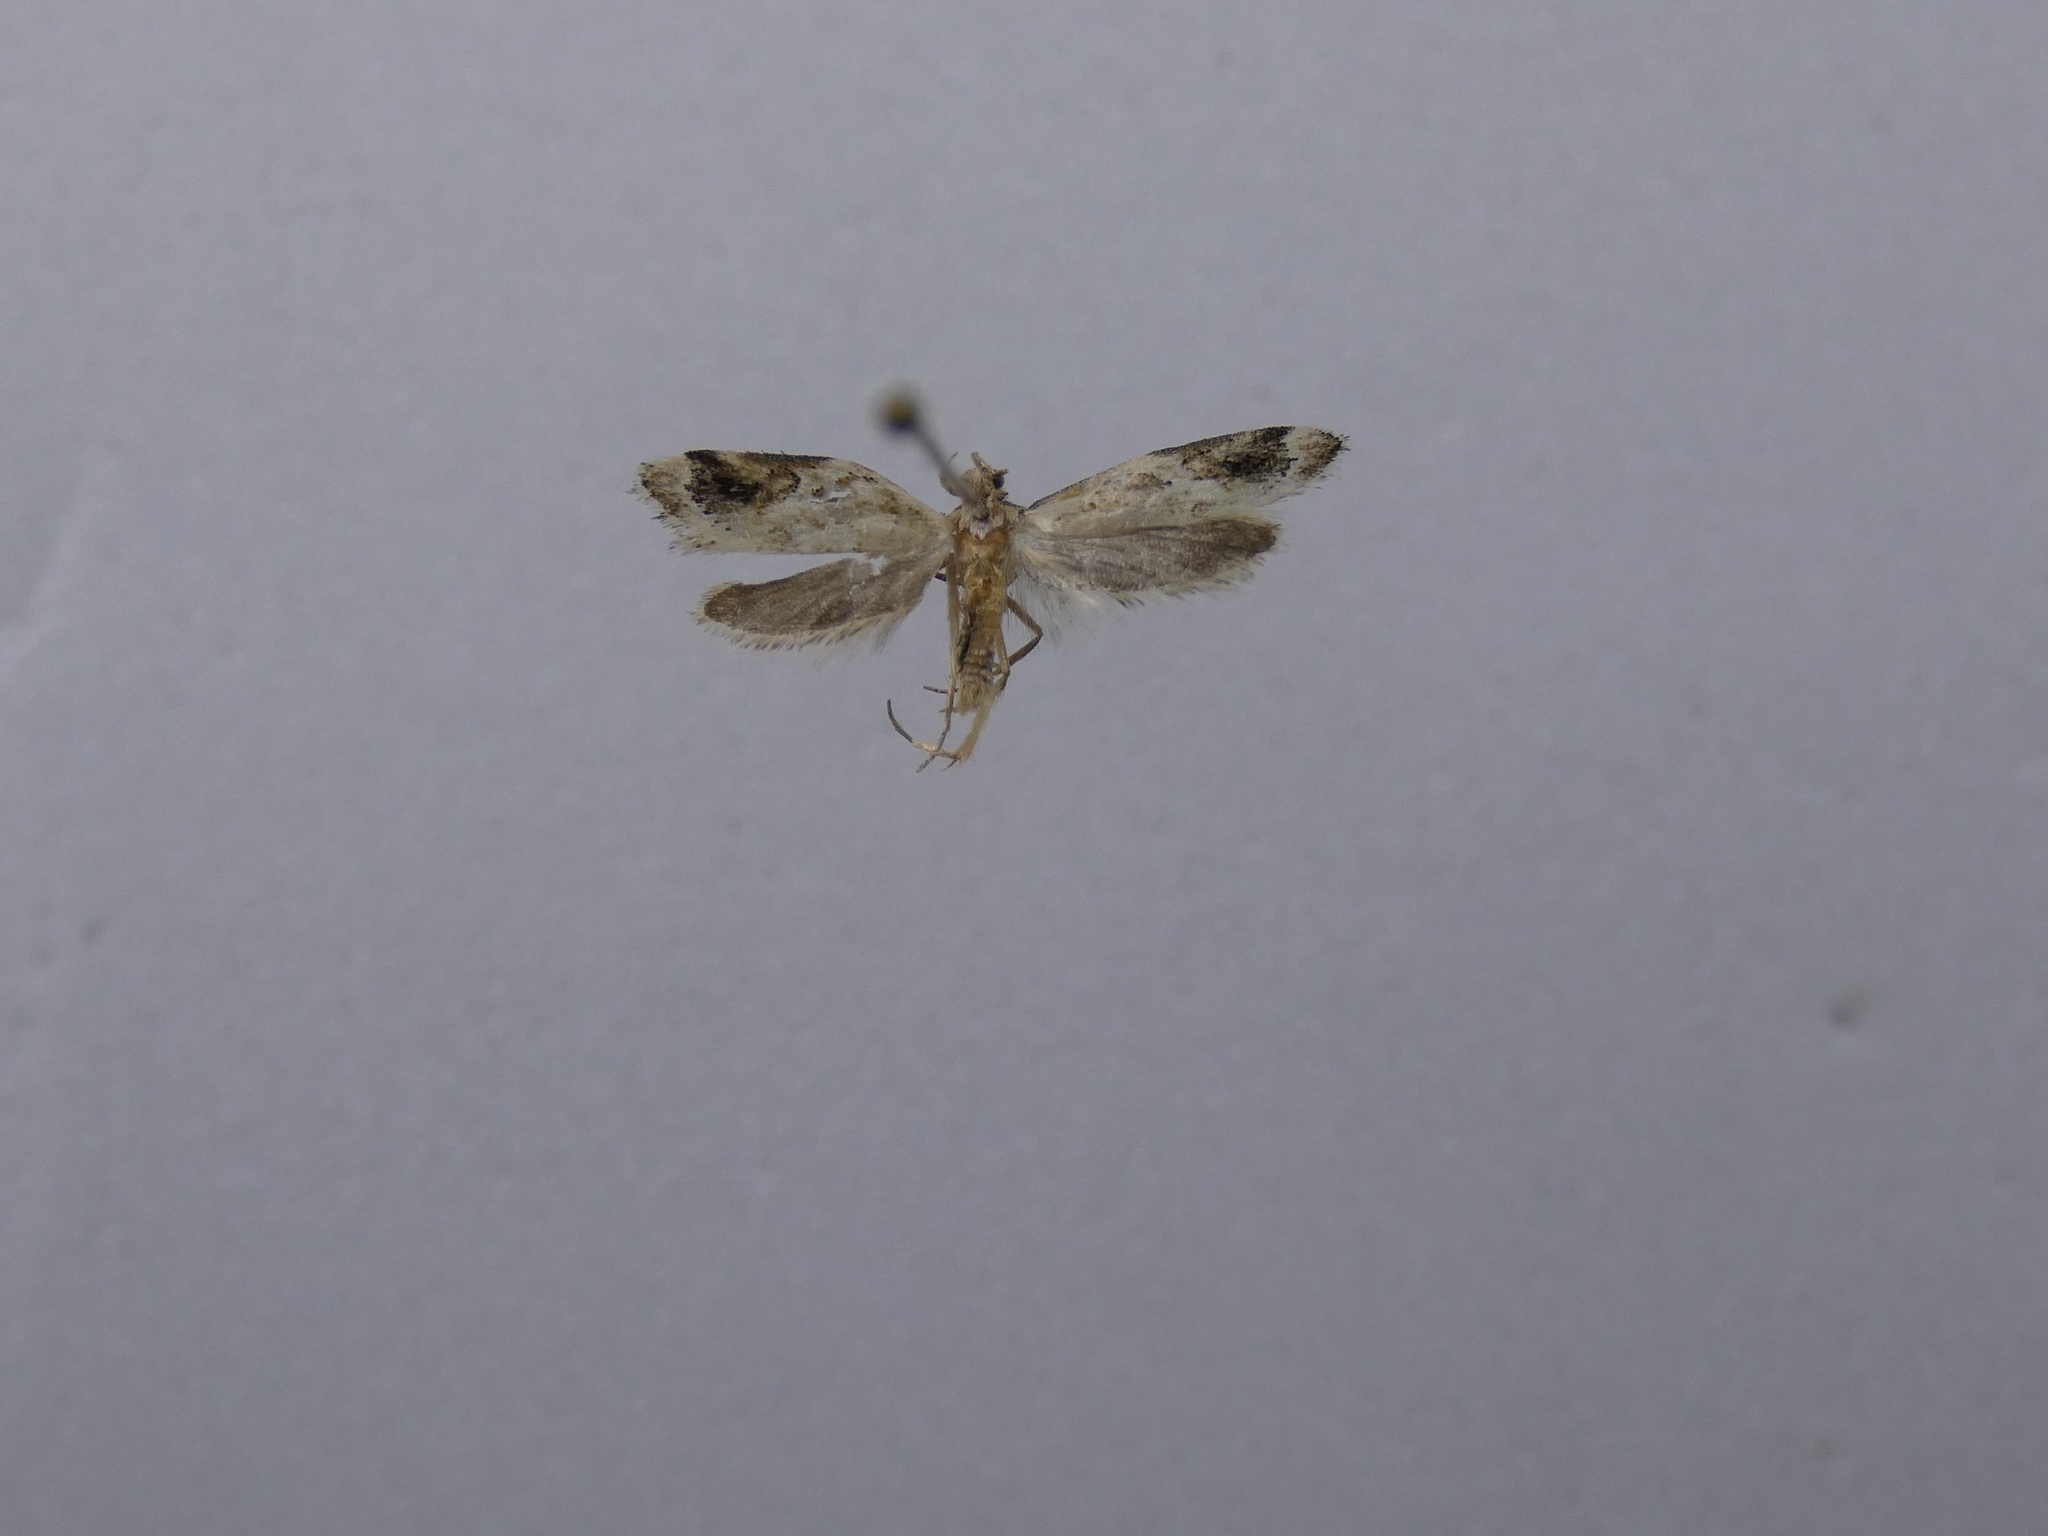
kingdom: Animalia
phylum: Arthropoda
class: Insecta
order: Lepidoptera
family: Oecophoridae
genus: Trachypepla
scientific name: Trachypepla aspidephora
